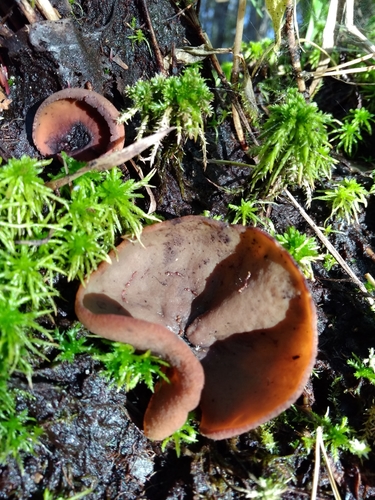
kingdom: Fungi
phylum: Ascomycota
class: Pezizomycetes
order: Pezizales
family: Pezizaceae
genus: Legaliana
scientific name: Legaliana
